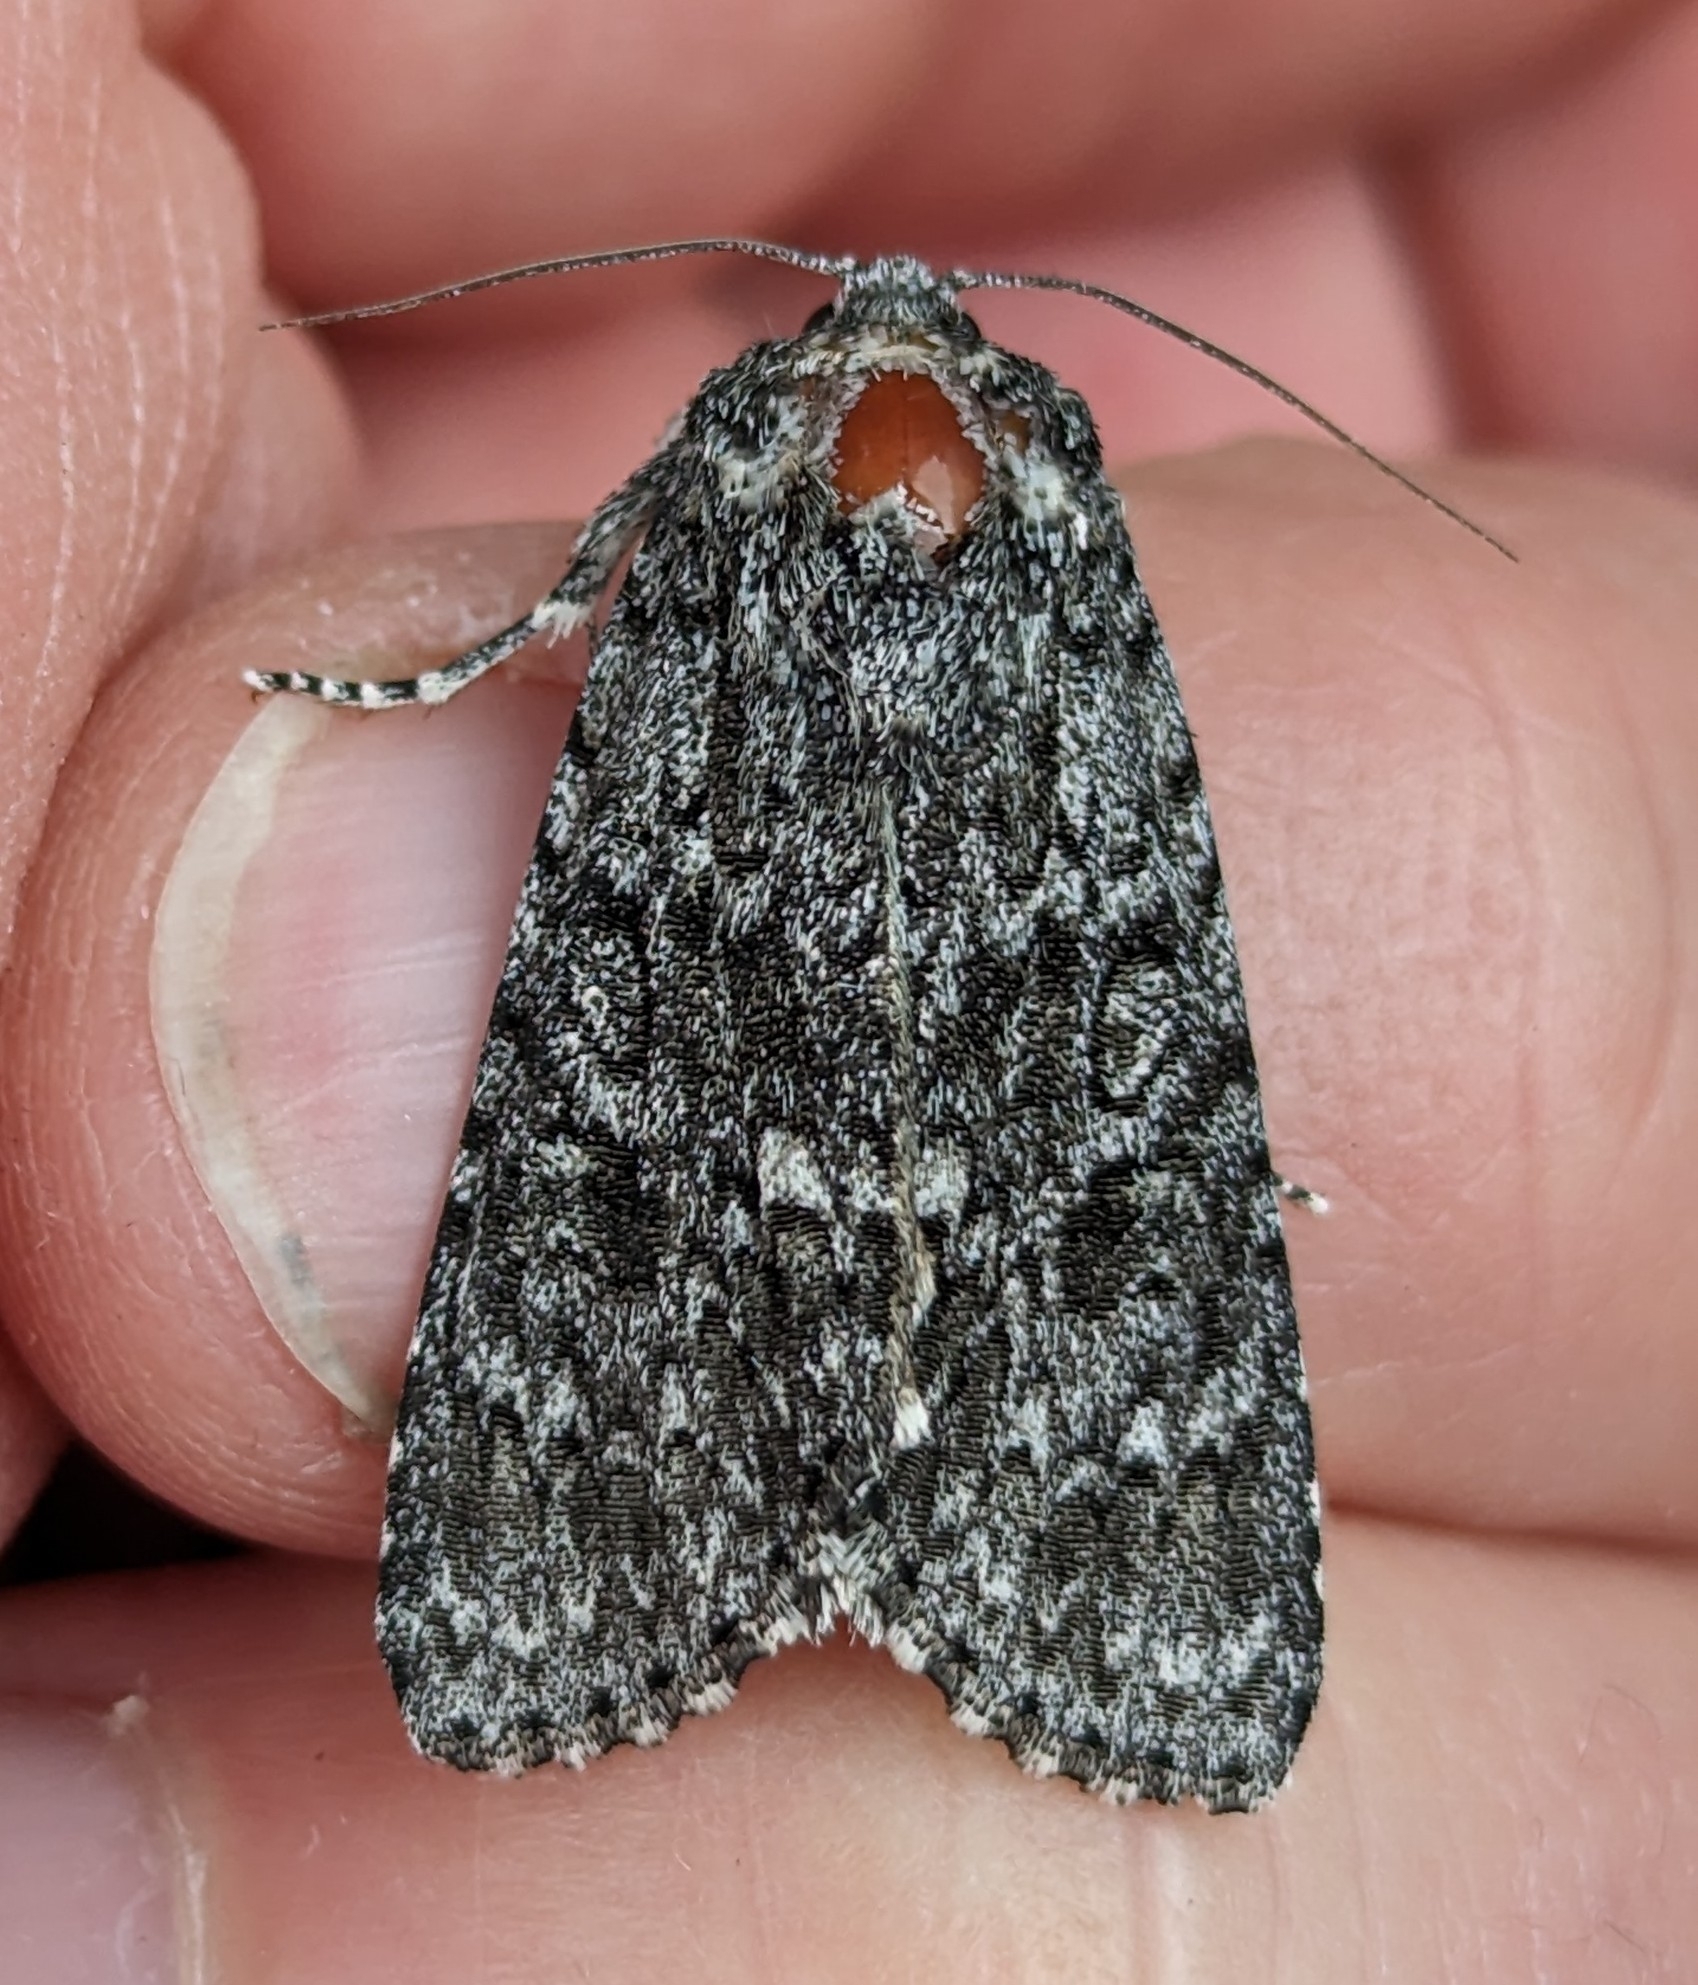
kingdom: Animalia
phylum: Arthropoda
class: Insecta
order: Lepidoptera
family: Noctuidae
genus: Acronicta
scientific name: Acronicta impleta
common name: Powdered dagger
